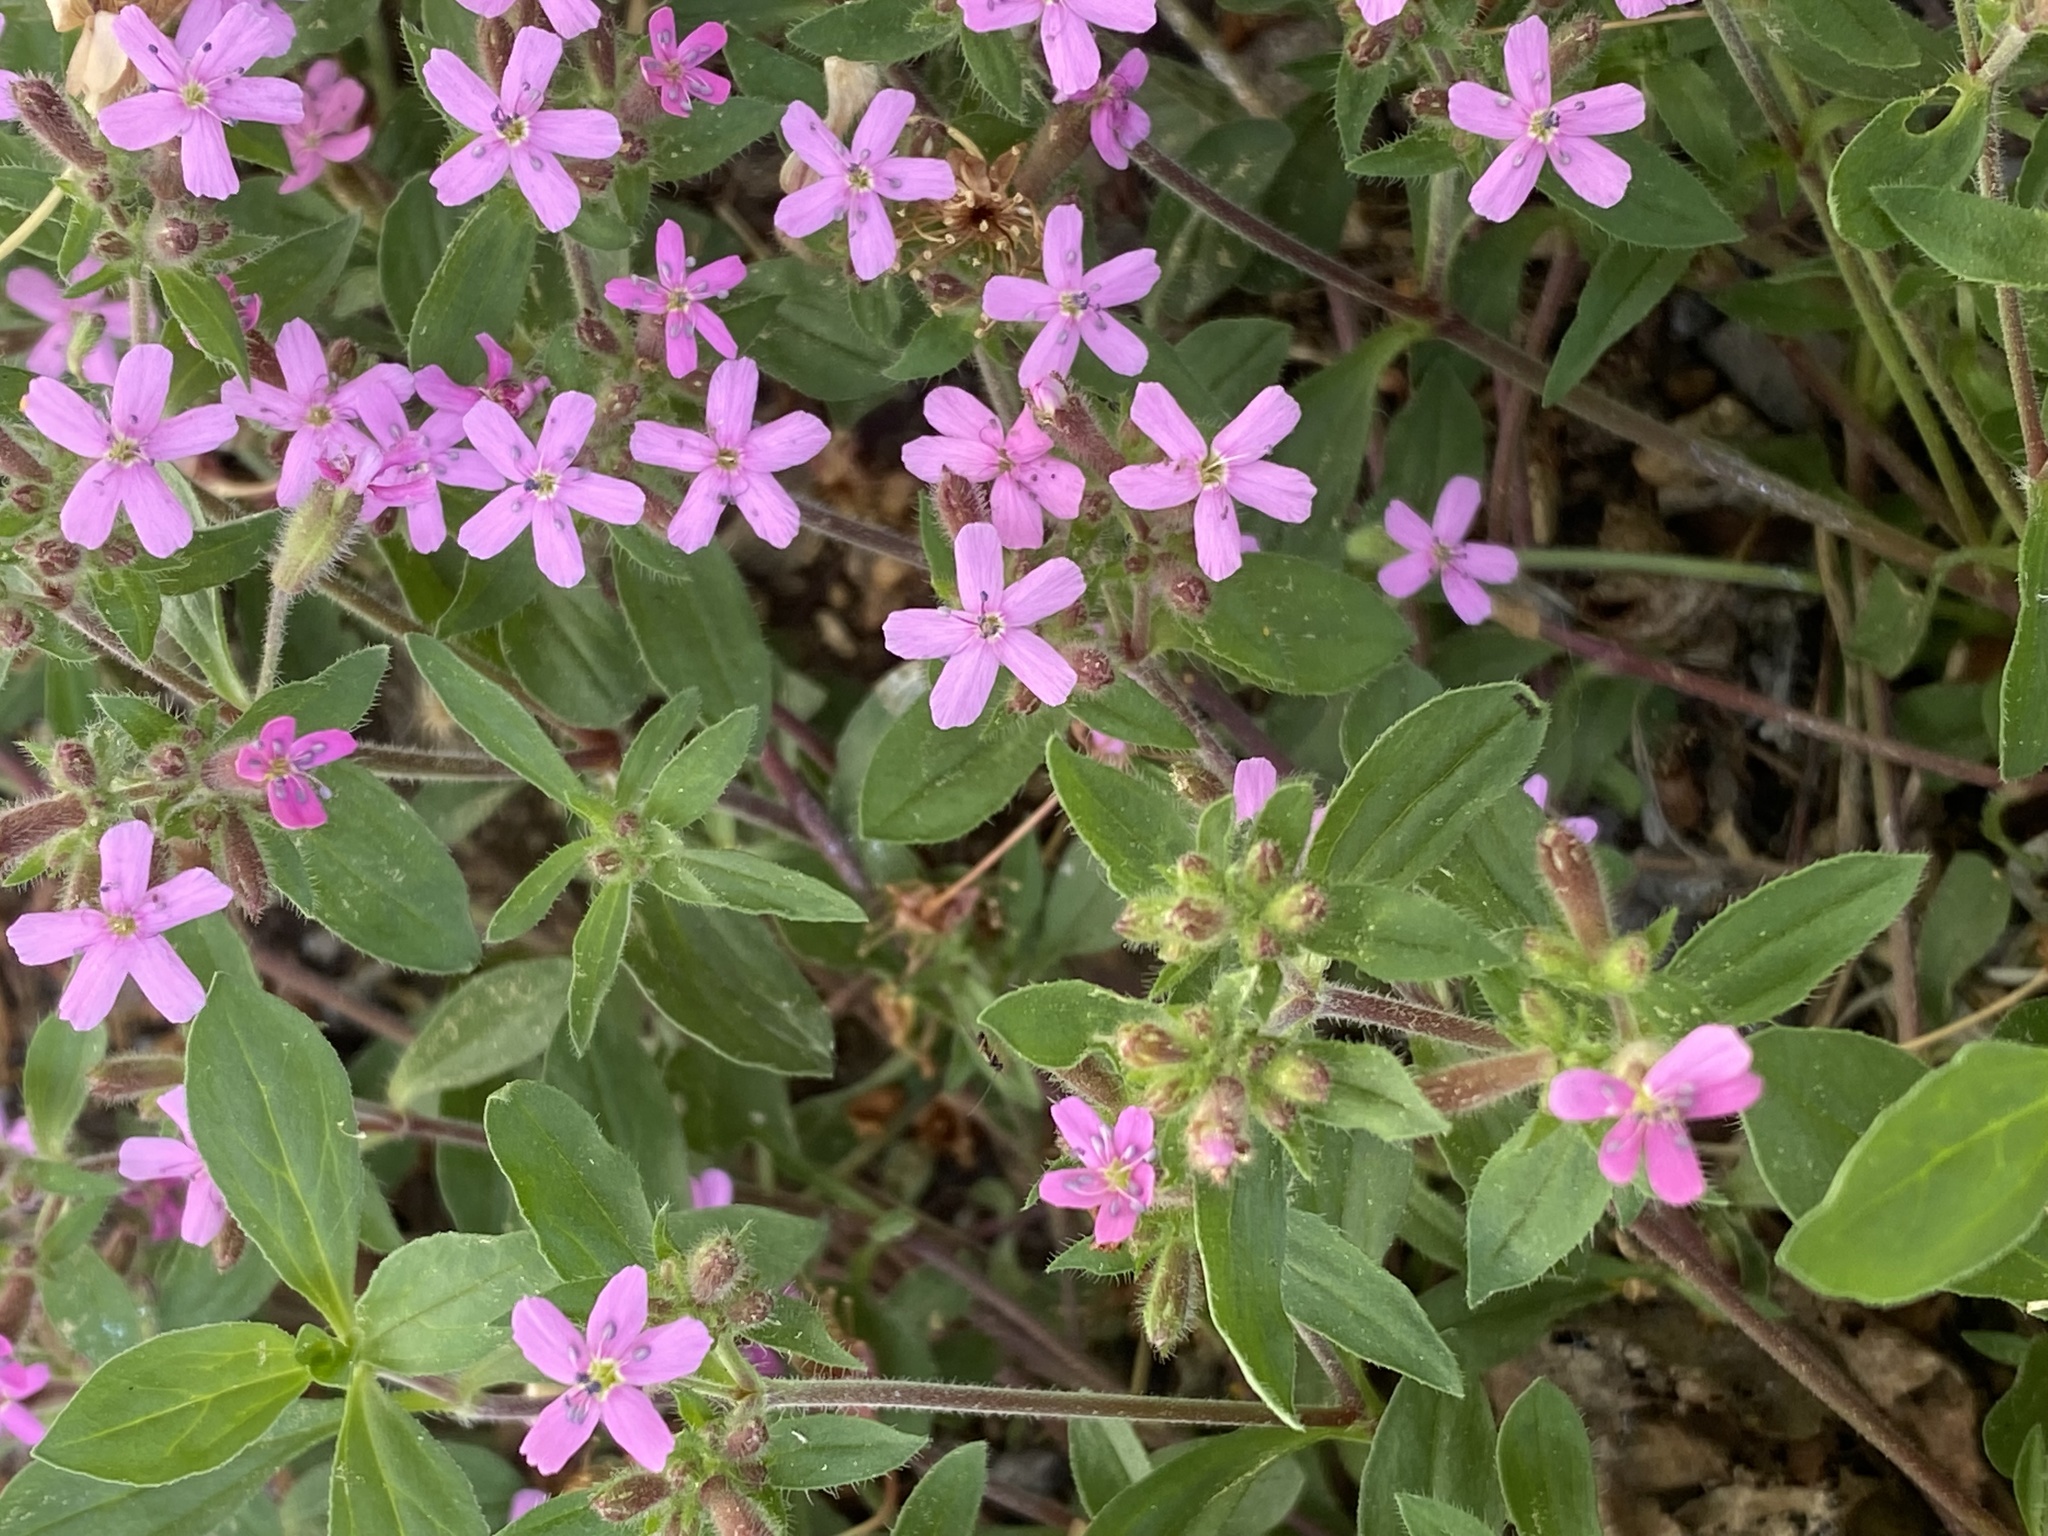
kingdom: Plantae
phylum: Tracheophyta
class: Magnoliopsida
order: Caryophyllales
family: Caryophyllaceae
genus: Saponaria
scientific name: Saponaria ocymoides
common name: Rock soapwort
